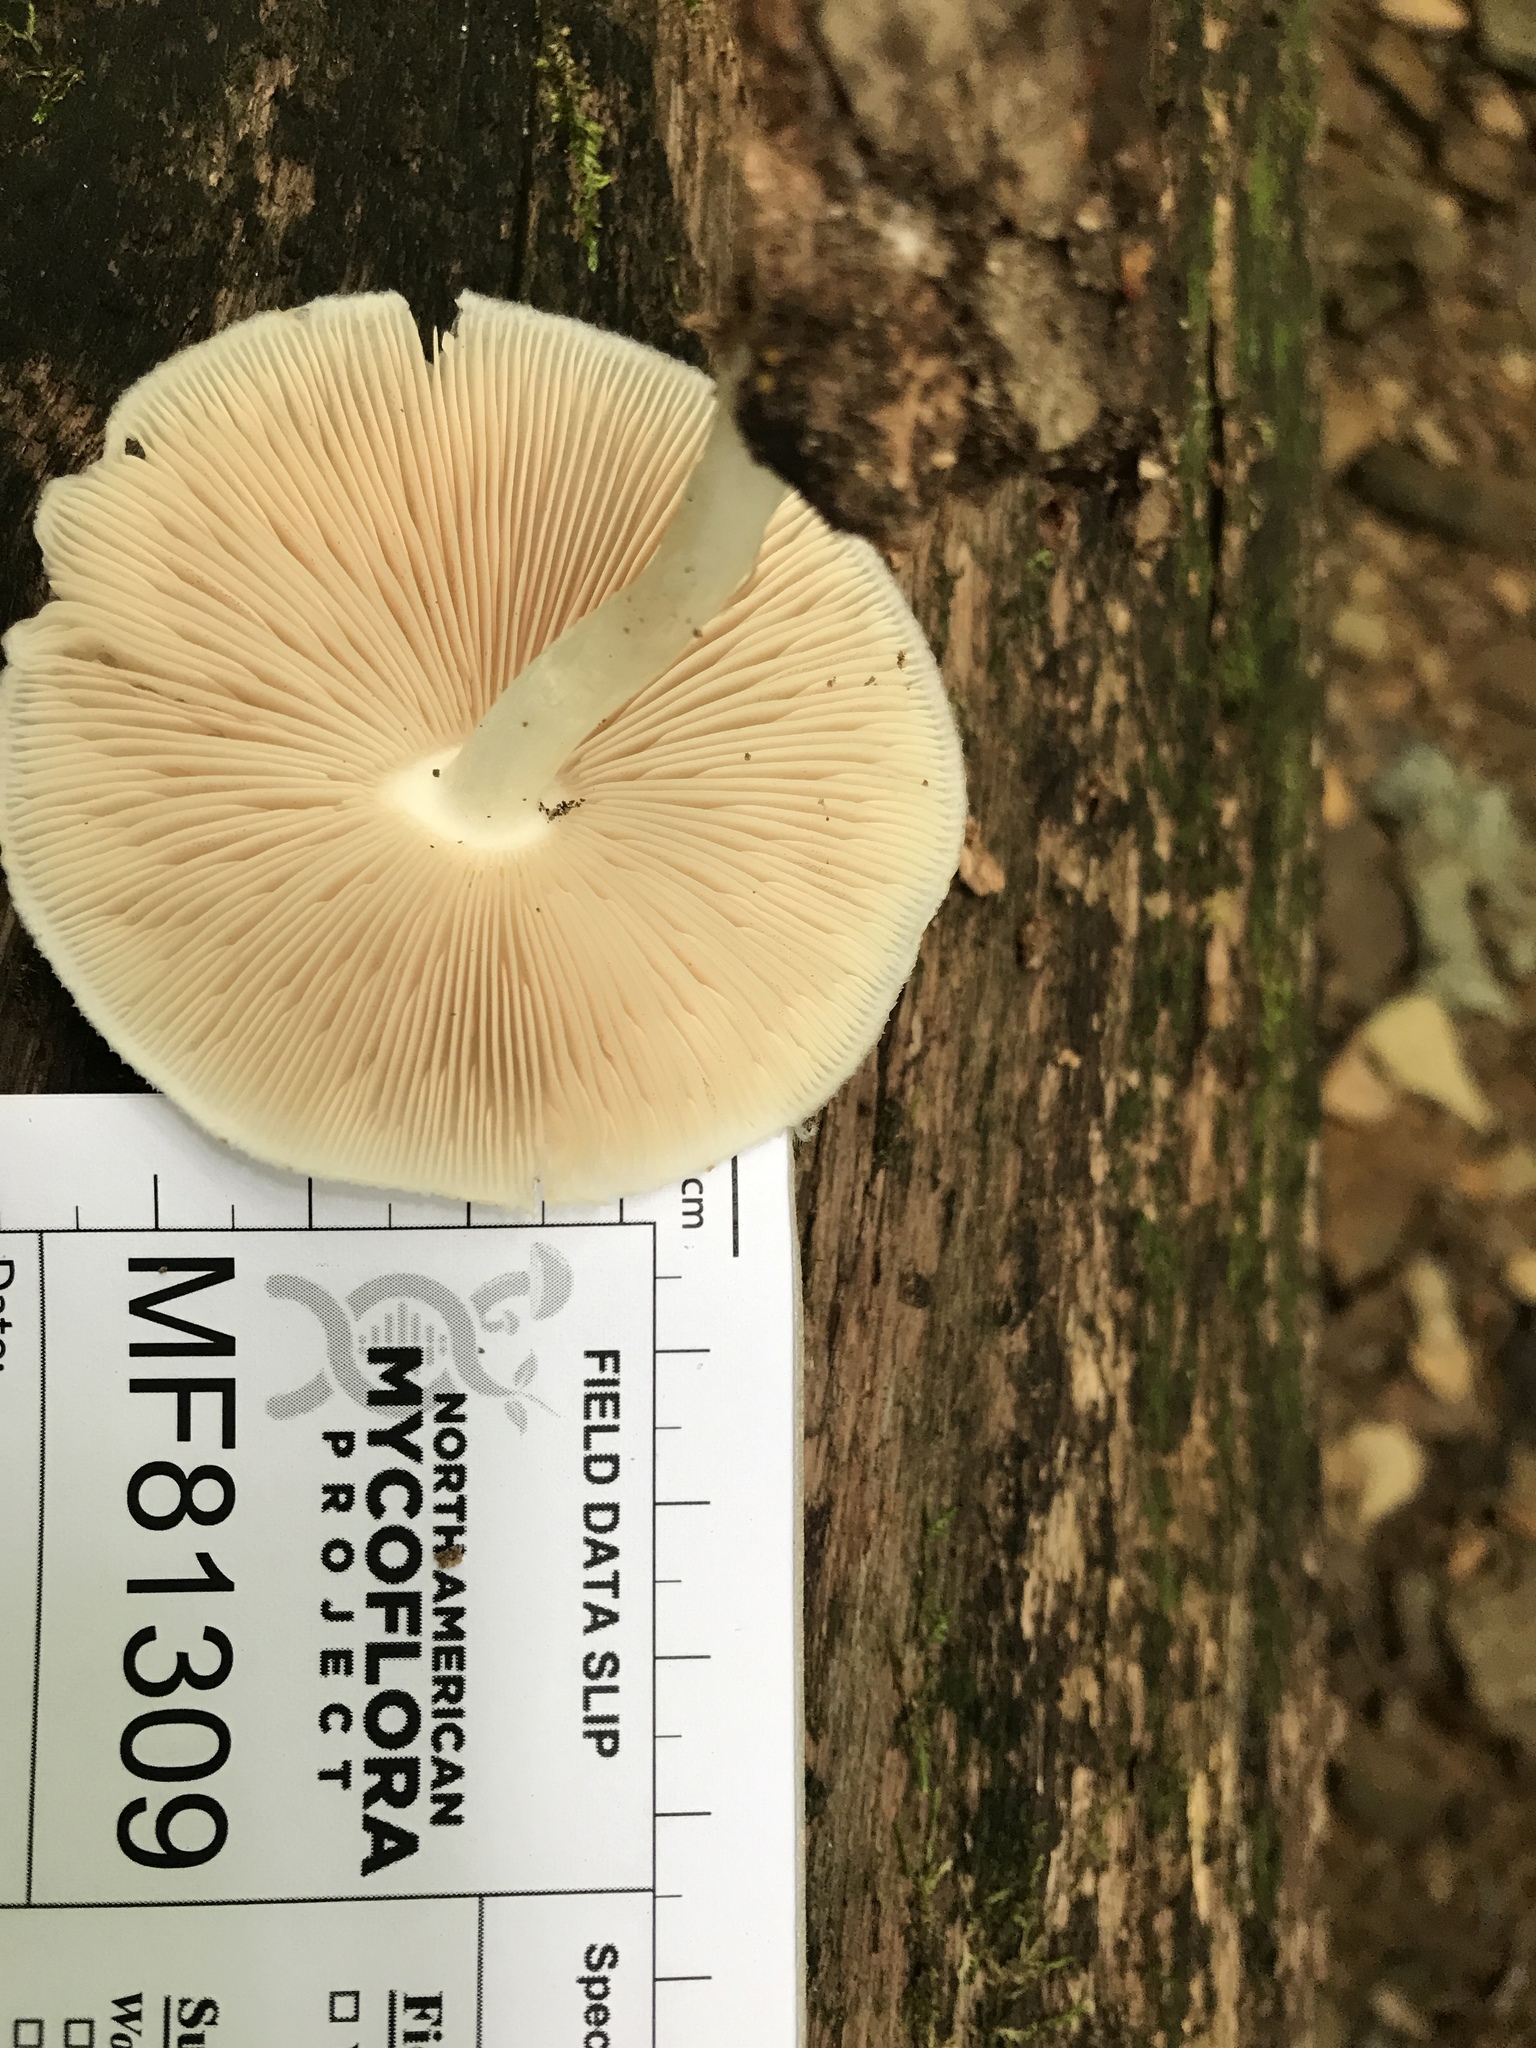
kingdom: Fungi
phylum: Basidiomycota
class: Agaricomycetes
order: Agaricales
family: Pluteaceae
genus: Pluteus
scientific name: Pluteus petasatus
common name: Scaly shield
